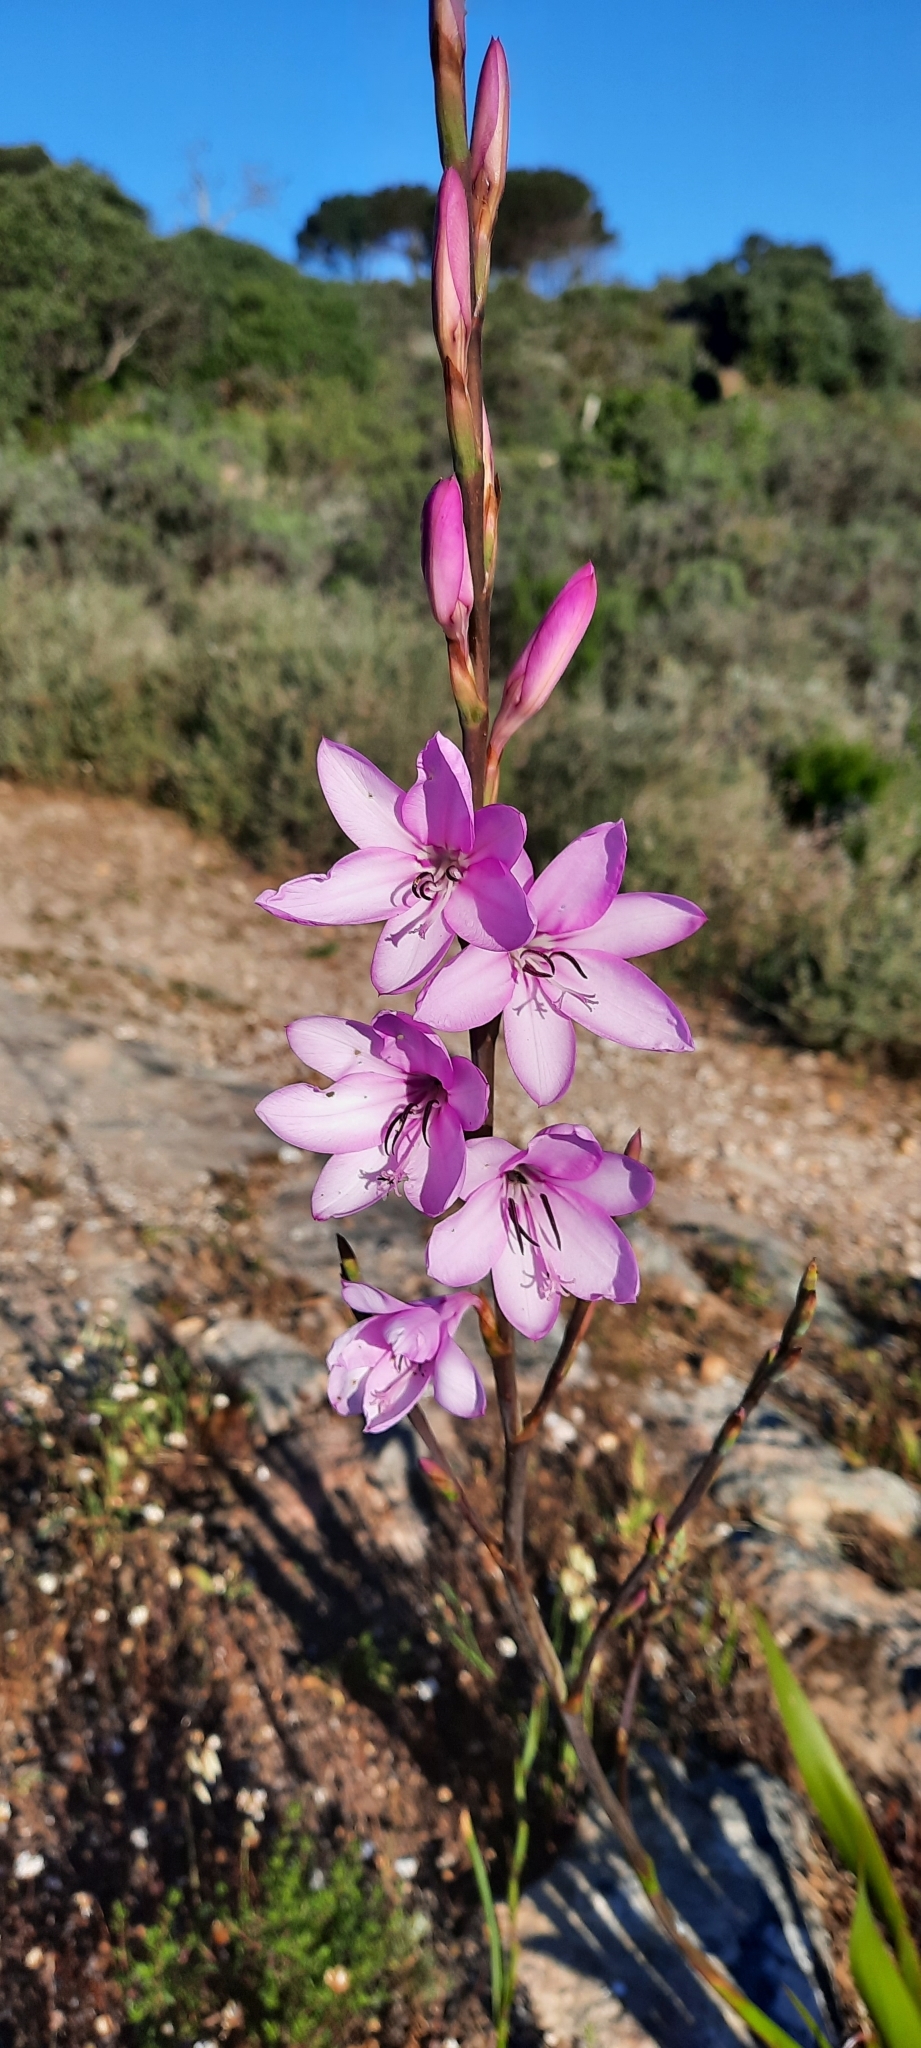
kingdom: Plantae
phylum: Tracheophyta
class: Liliopsida
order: Asparagales
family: Iridaceae
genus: Watsonia
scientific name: Watsonia borbonica
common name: Bugle-lily
